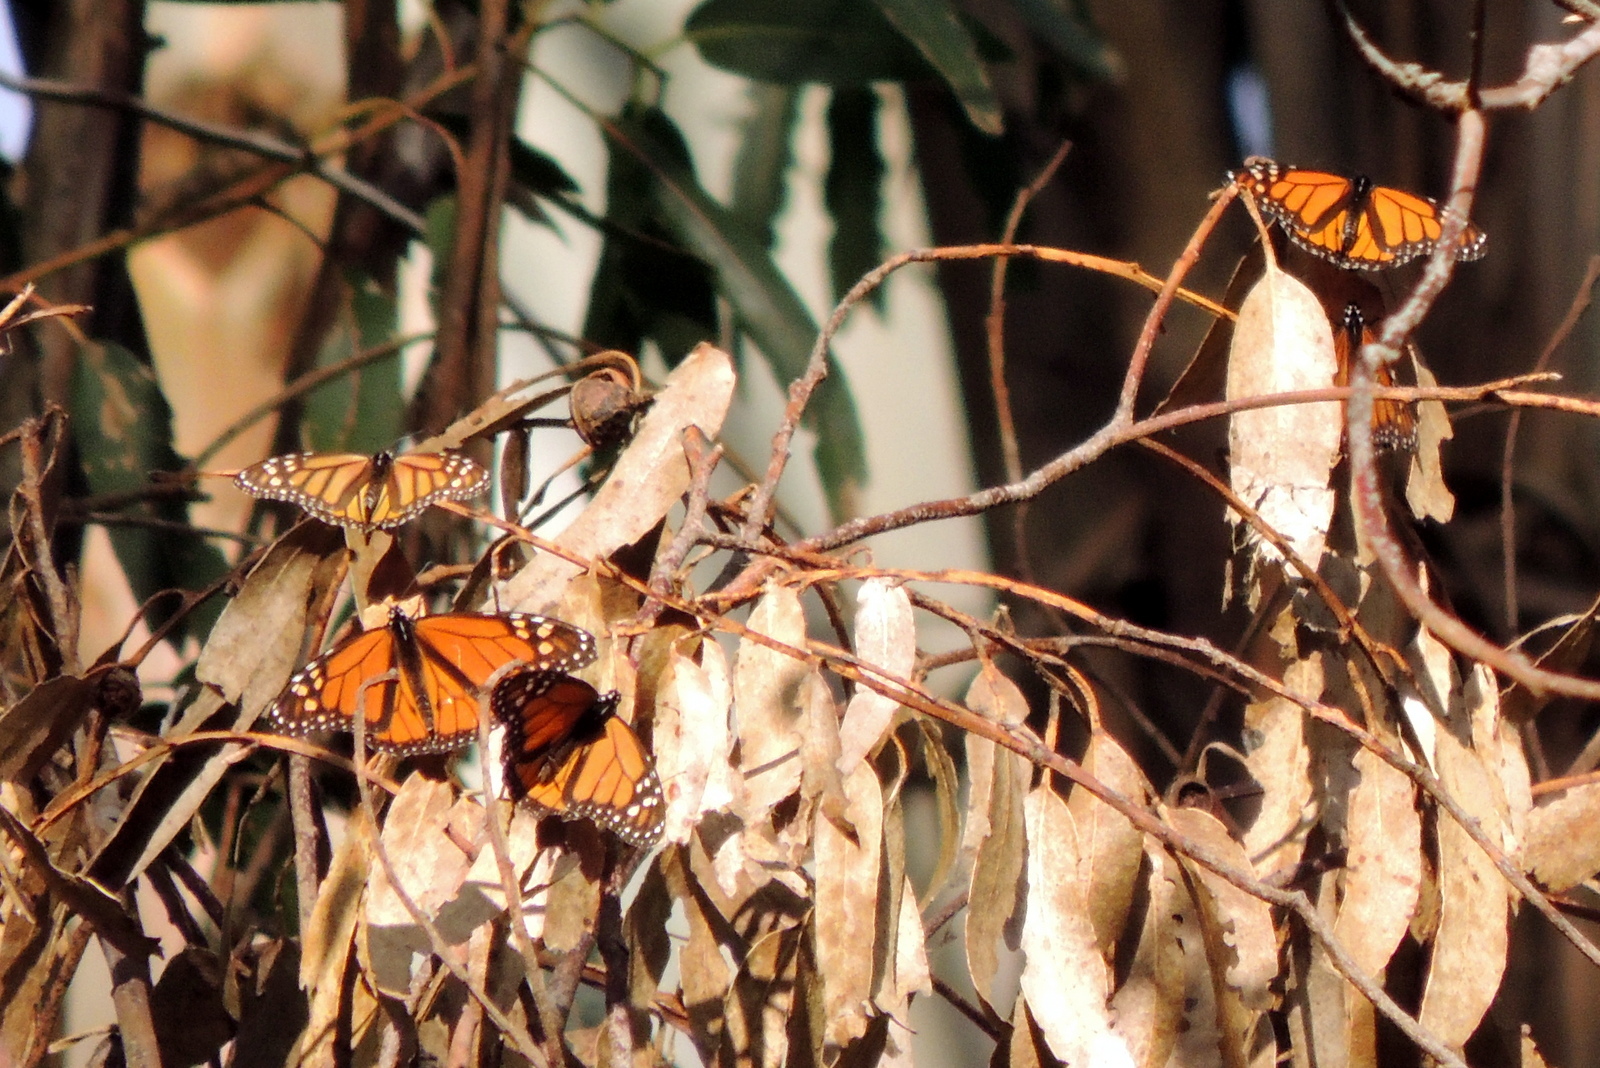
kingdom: Animalia
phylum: Arthropoda
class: Insecta
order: Lepidoptera
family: Nymphalidae
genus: Danaus
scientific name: Danaus plexippus
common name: Monarch
